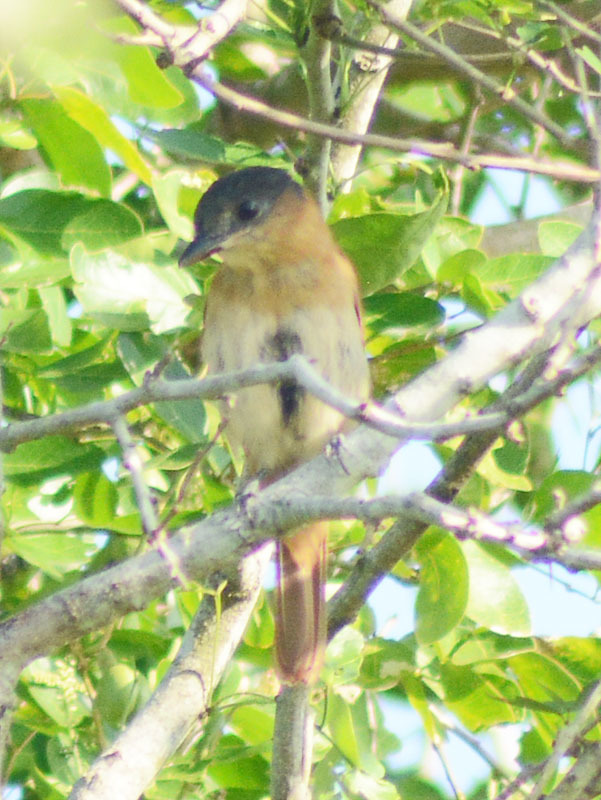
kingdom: Animalia
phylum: Chordata
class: Aves
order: Passeriformes
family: Cotingidae
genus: Pachyramphus
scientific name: Pachyramphus aglaiae
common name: Rose-throated becard
